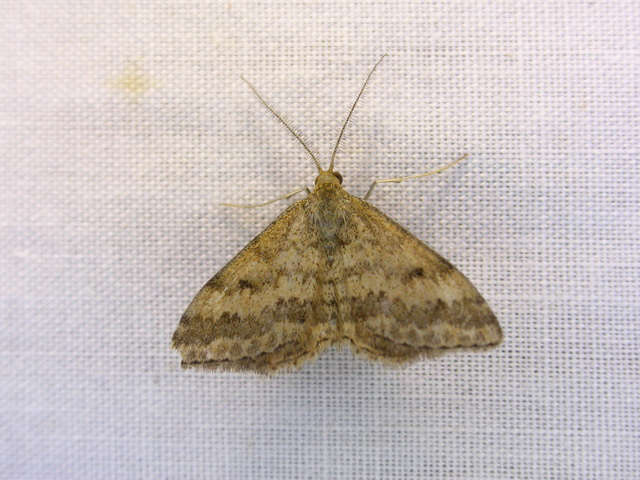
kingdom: Animalia
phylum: Arthropoda
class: Insecta
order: Lepidoptera
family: Geometridae
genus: Scopula
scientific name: Scopula rubraria
